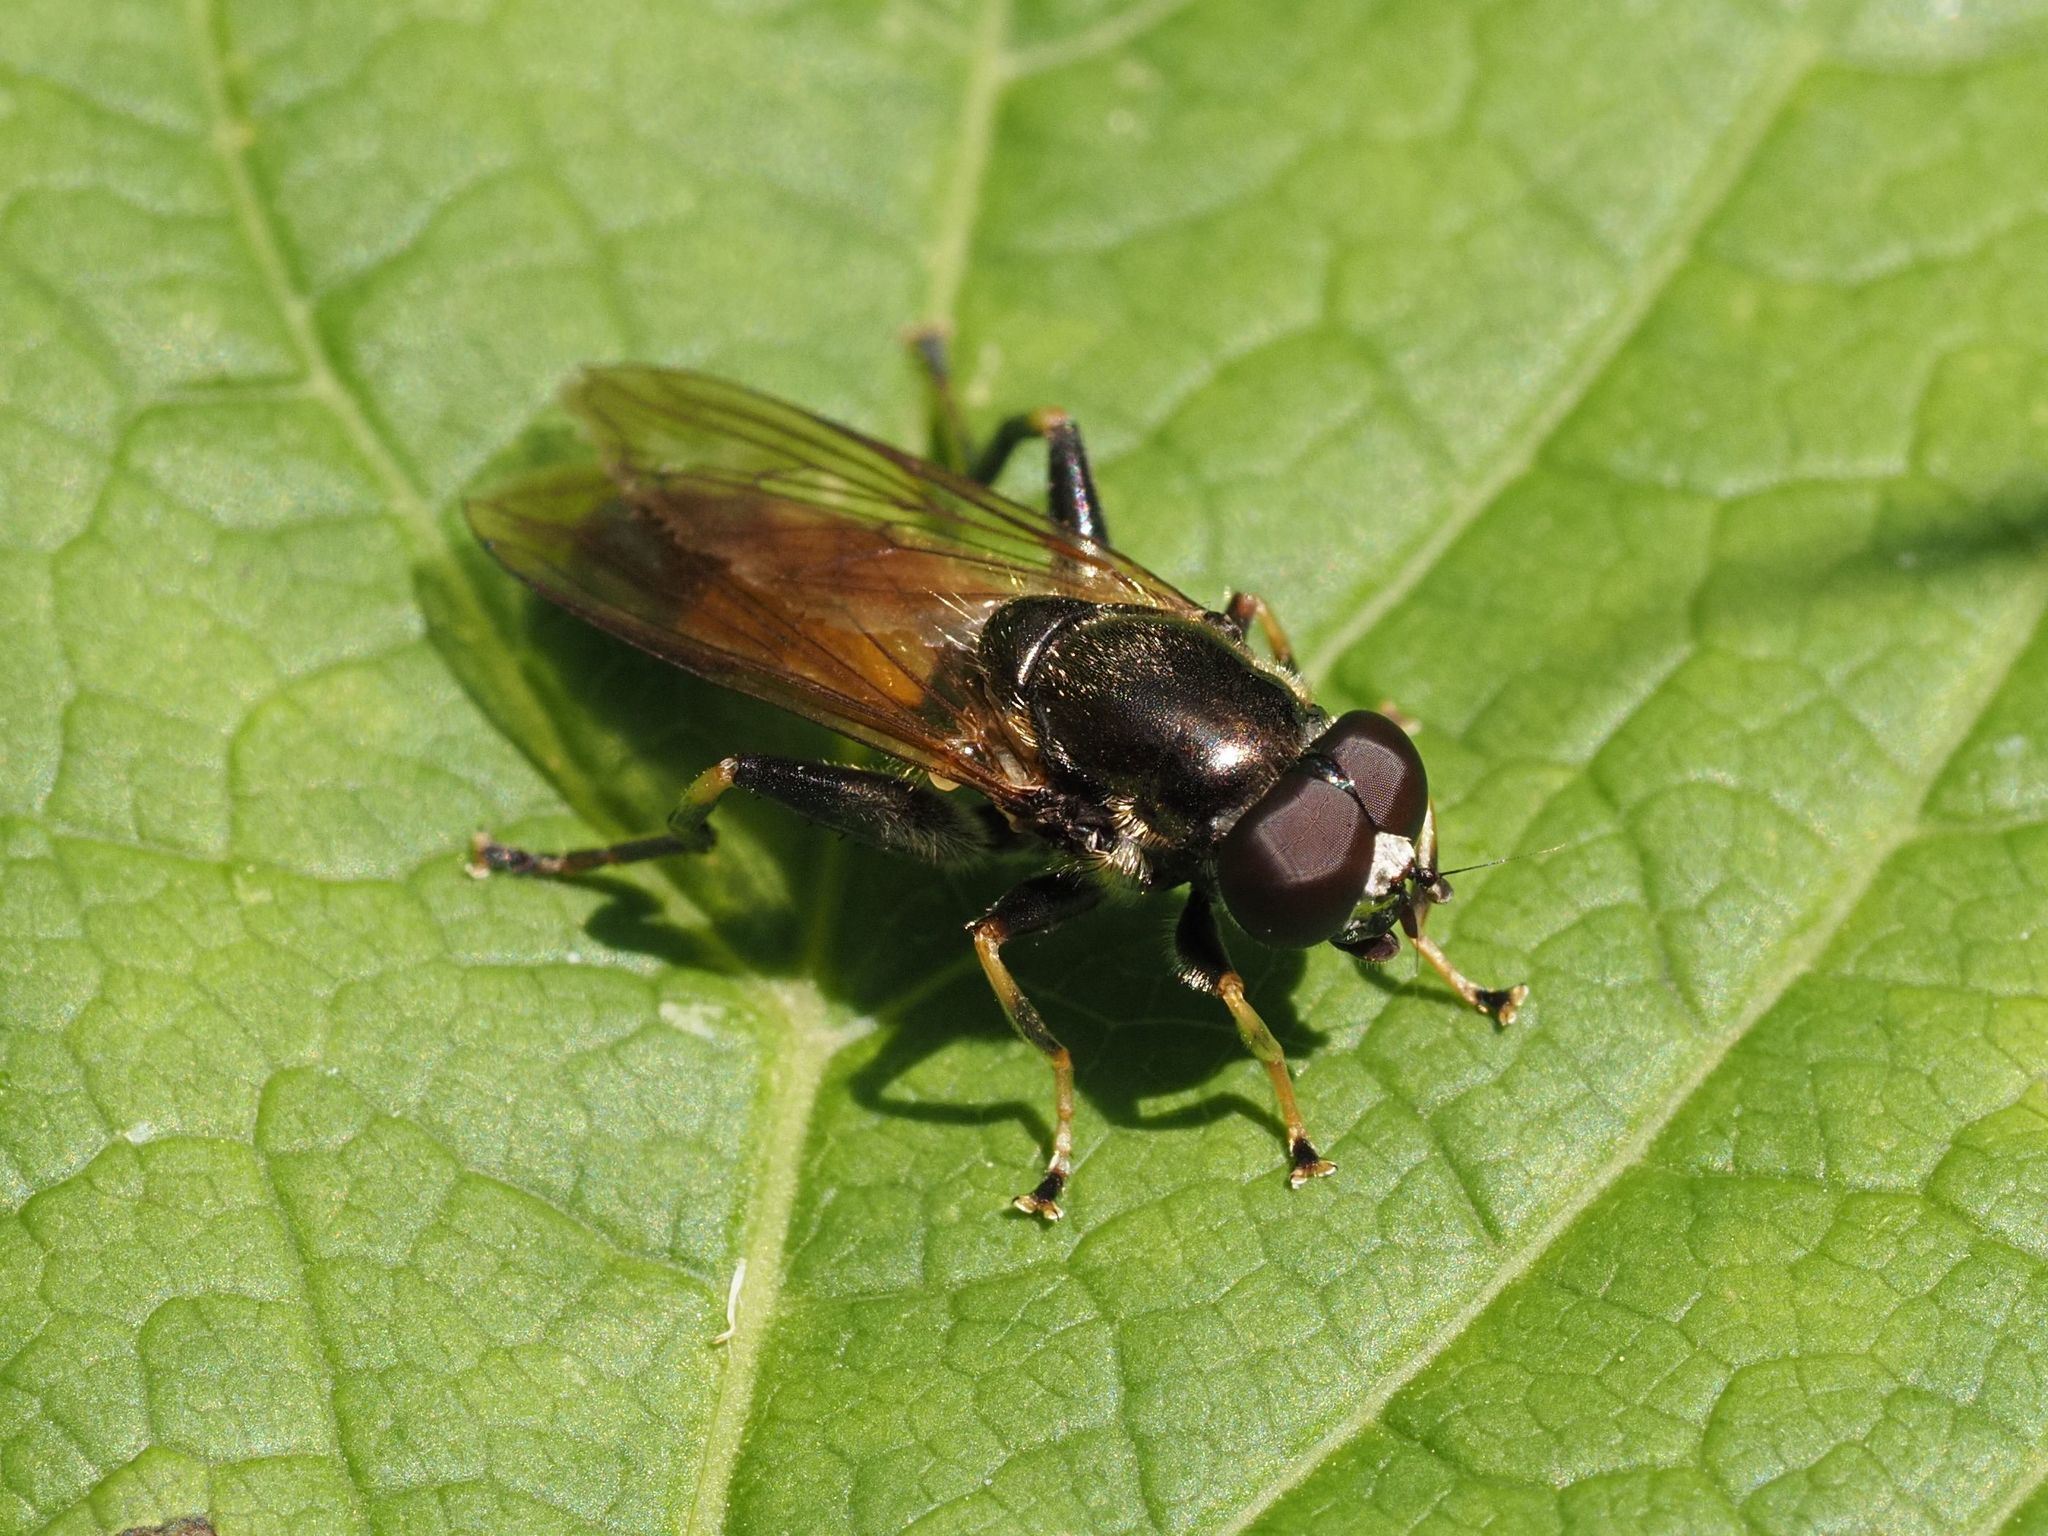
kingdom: Animalia
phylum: Arthropoda
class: Insecta
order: Diptera
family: Syrphidae
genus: Xylota
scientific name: Xylota segnis
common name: Brown-toed forest fly
